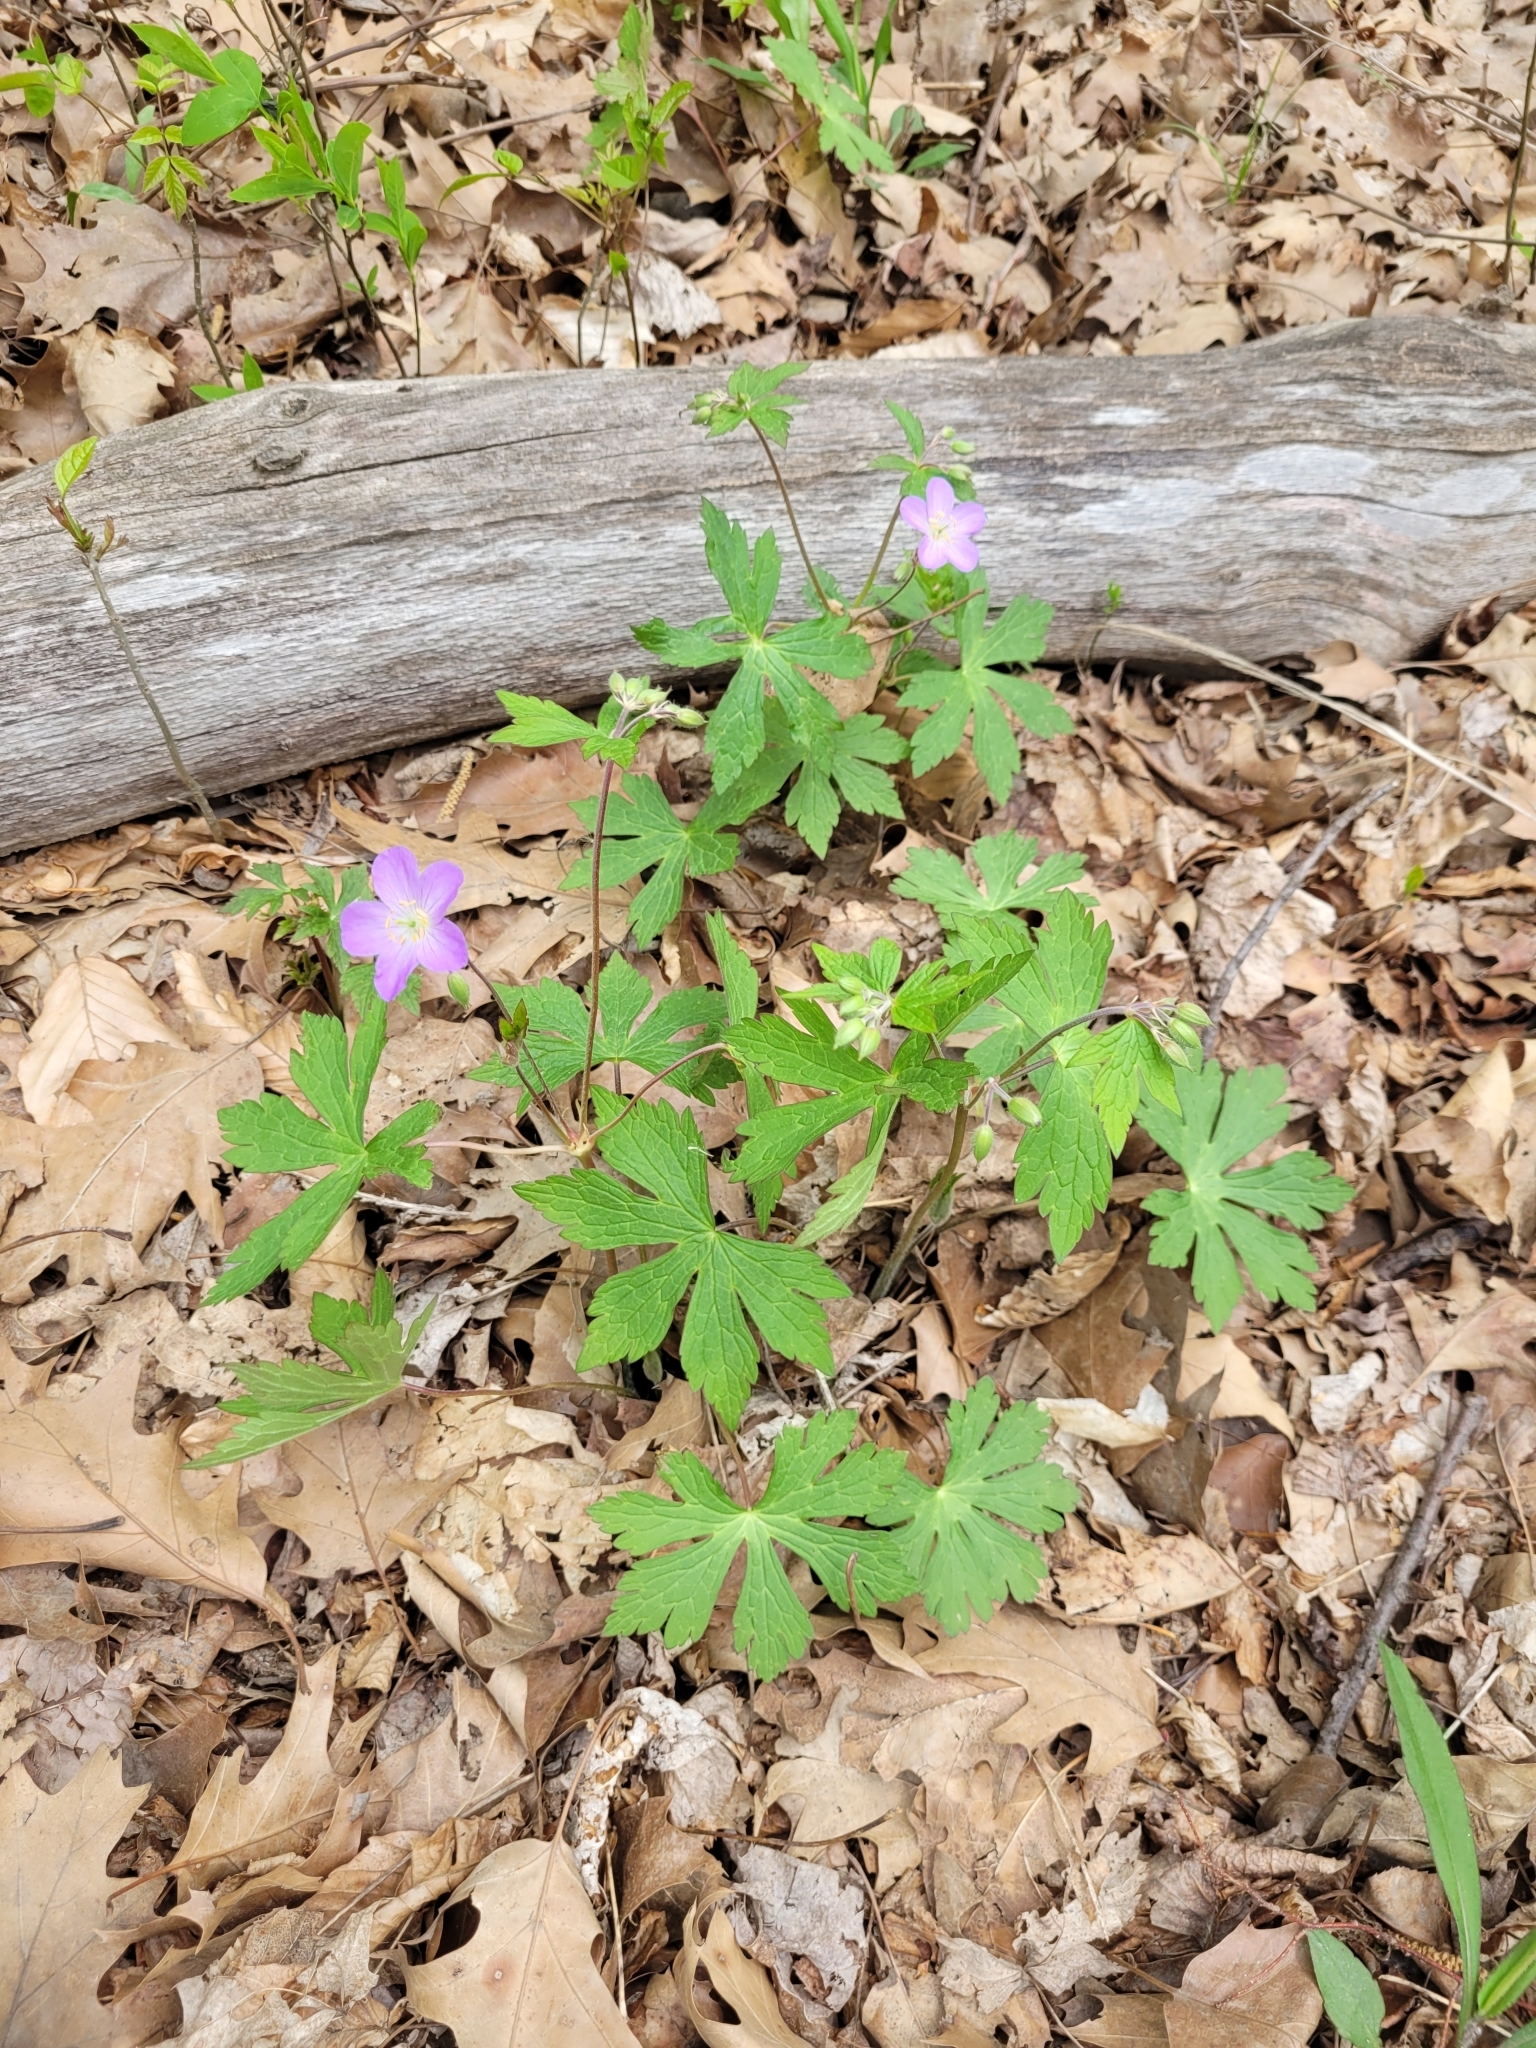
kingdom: Plantae
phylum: Tracheophyta
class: Magnoliopsida
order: Geraniales
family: Geraniaceae
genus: Geranium
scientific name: Geranium maculatum
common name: Spotted geranium
